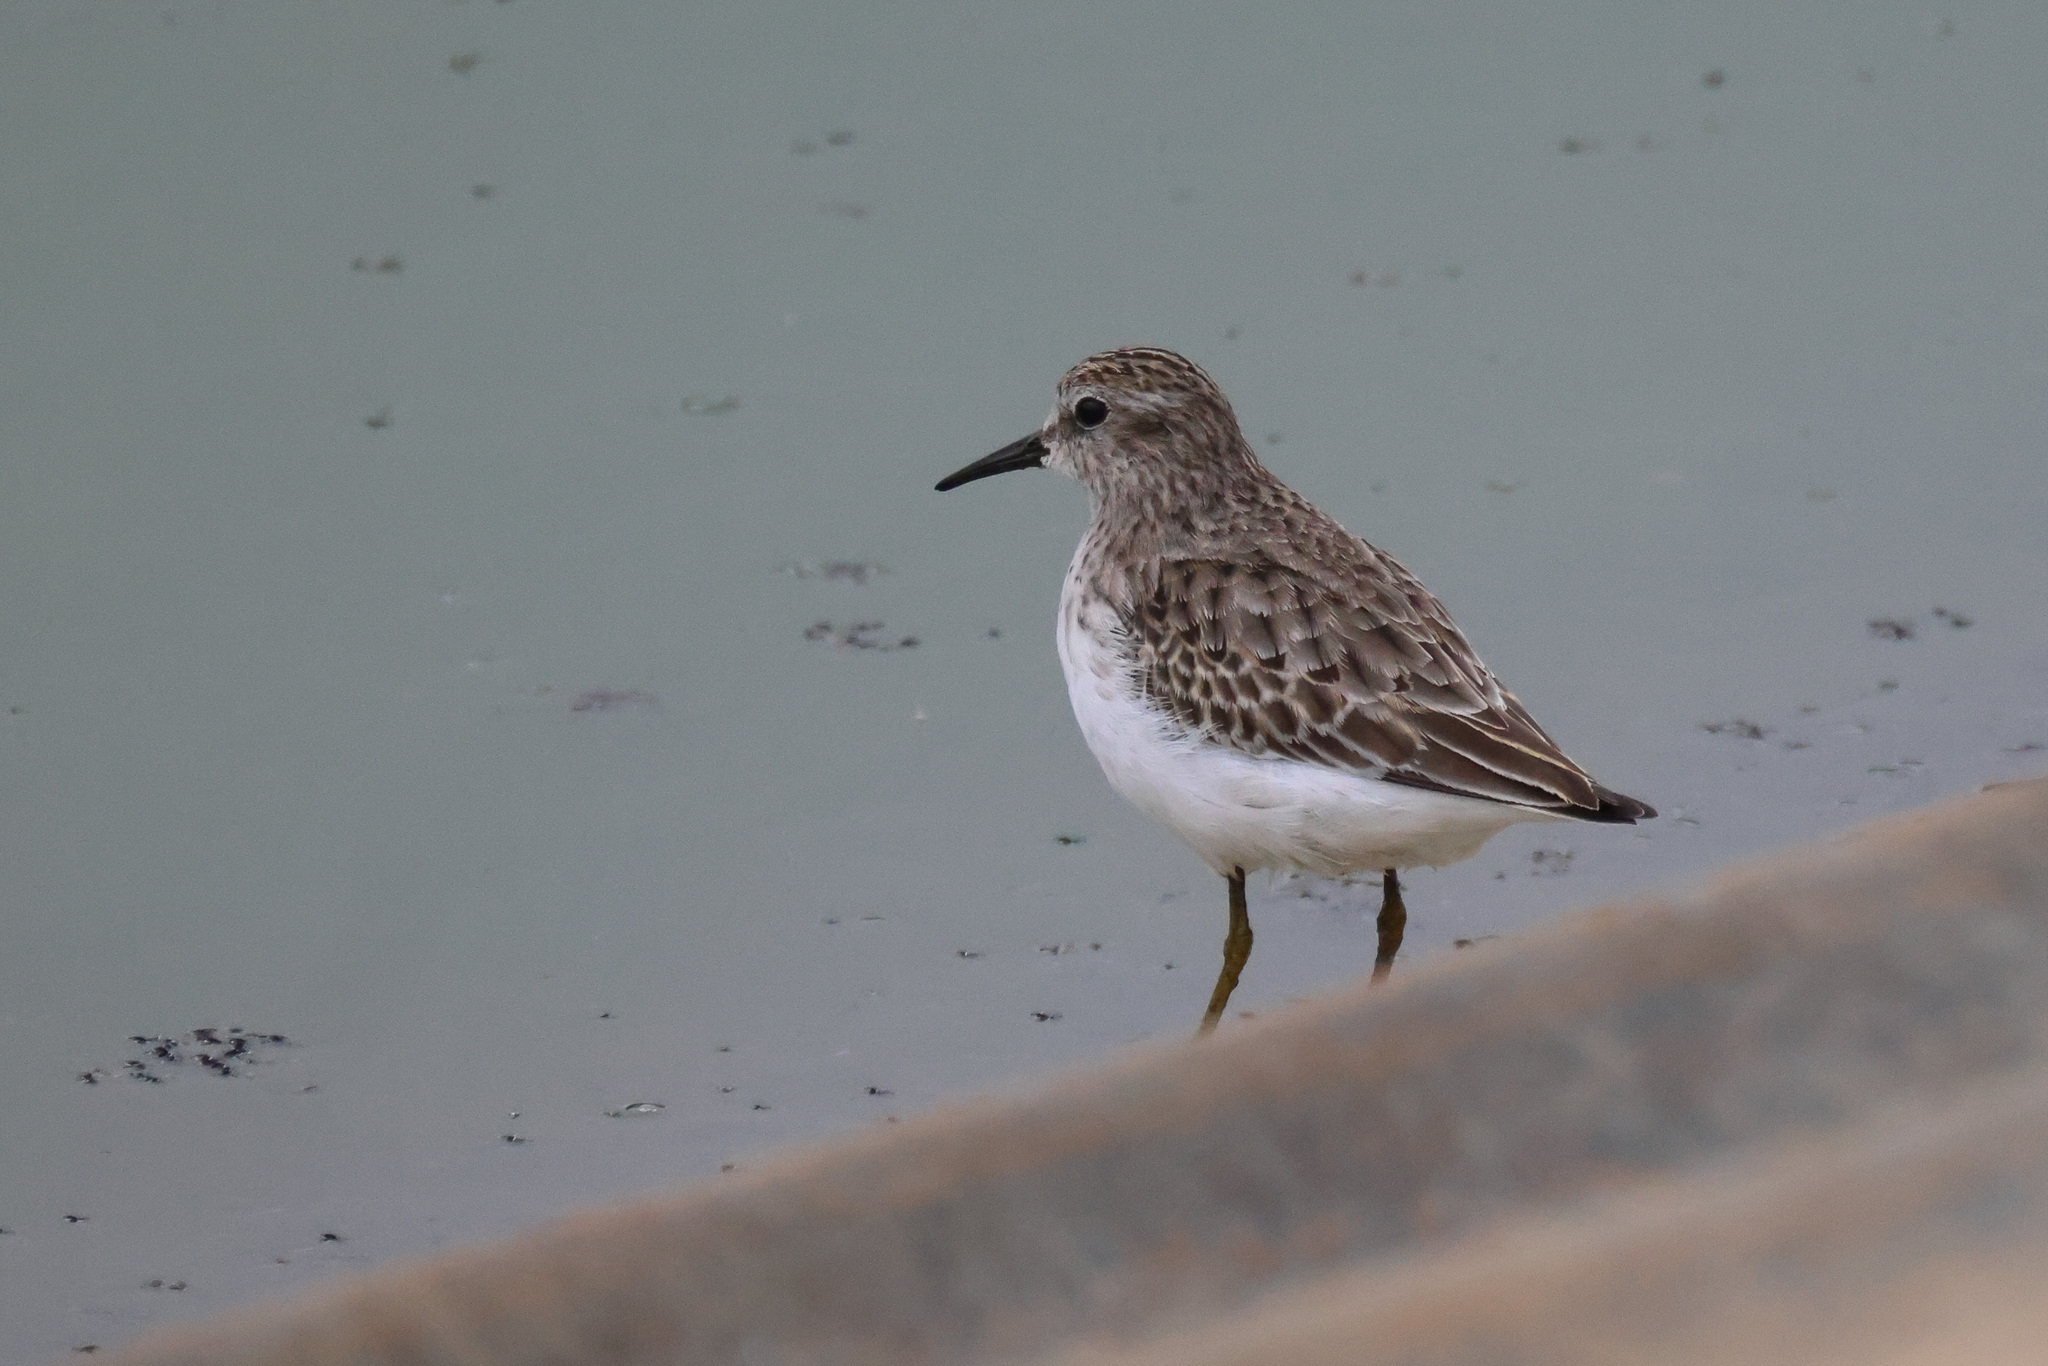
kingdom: Animalia
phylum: Chordata
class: Aves
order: Charadriiformes
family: Scolopacidae
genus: Calidris
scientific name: Calidris minutilla
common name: Least sandpiper
